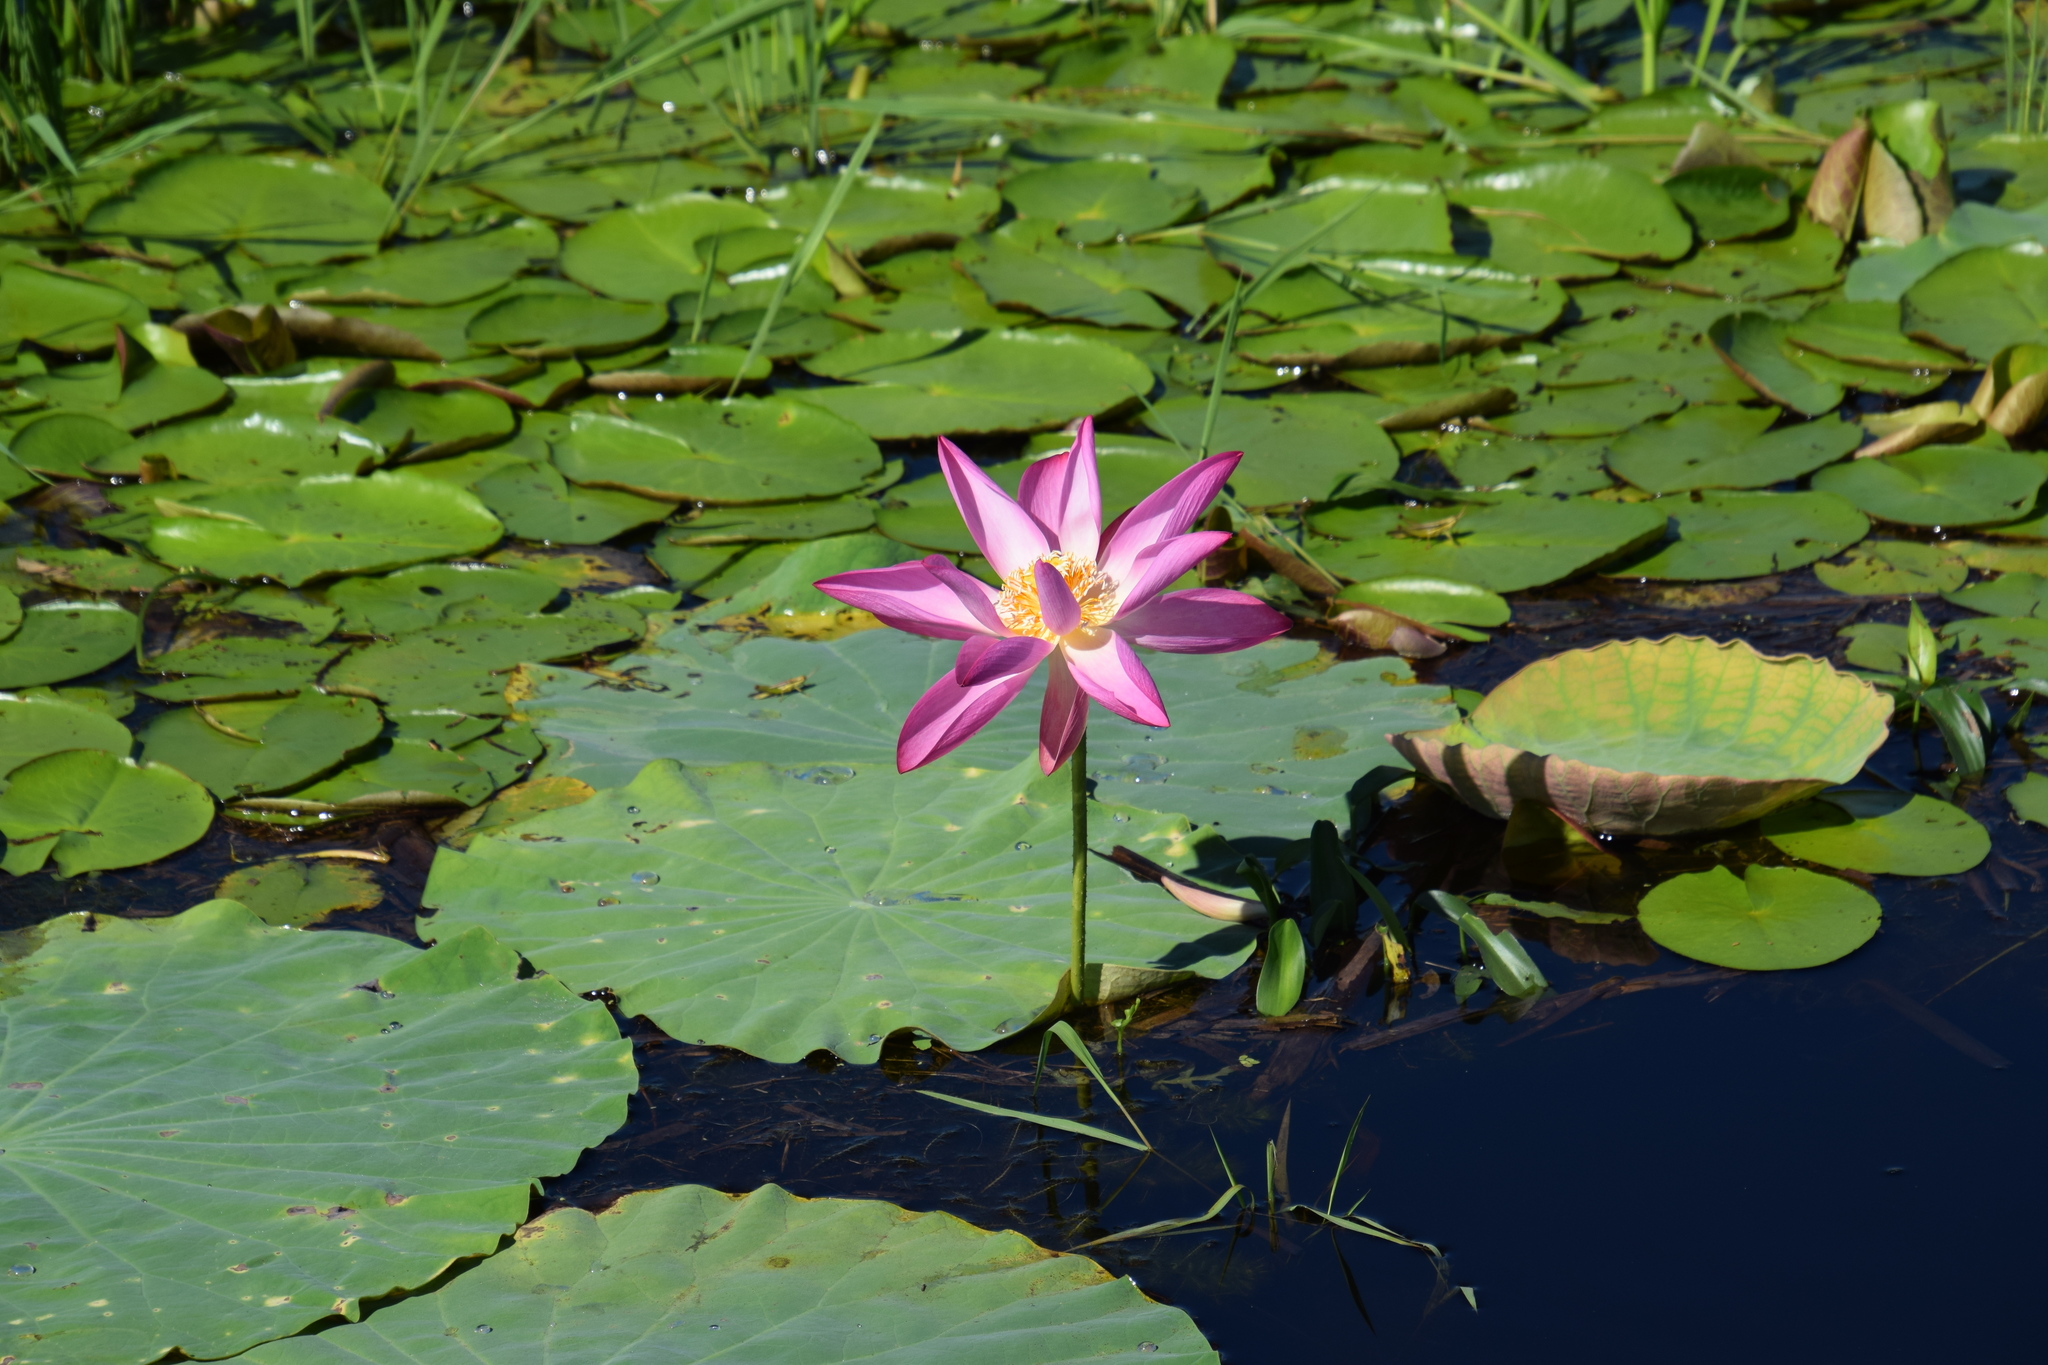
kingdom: Plantae
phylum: Tracheophyta
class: Magnoliopsida
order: Proteales
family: Nelumbonaceae
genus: Nelumbo
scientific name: Nelumbo nucifera
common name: Sacred lotus
